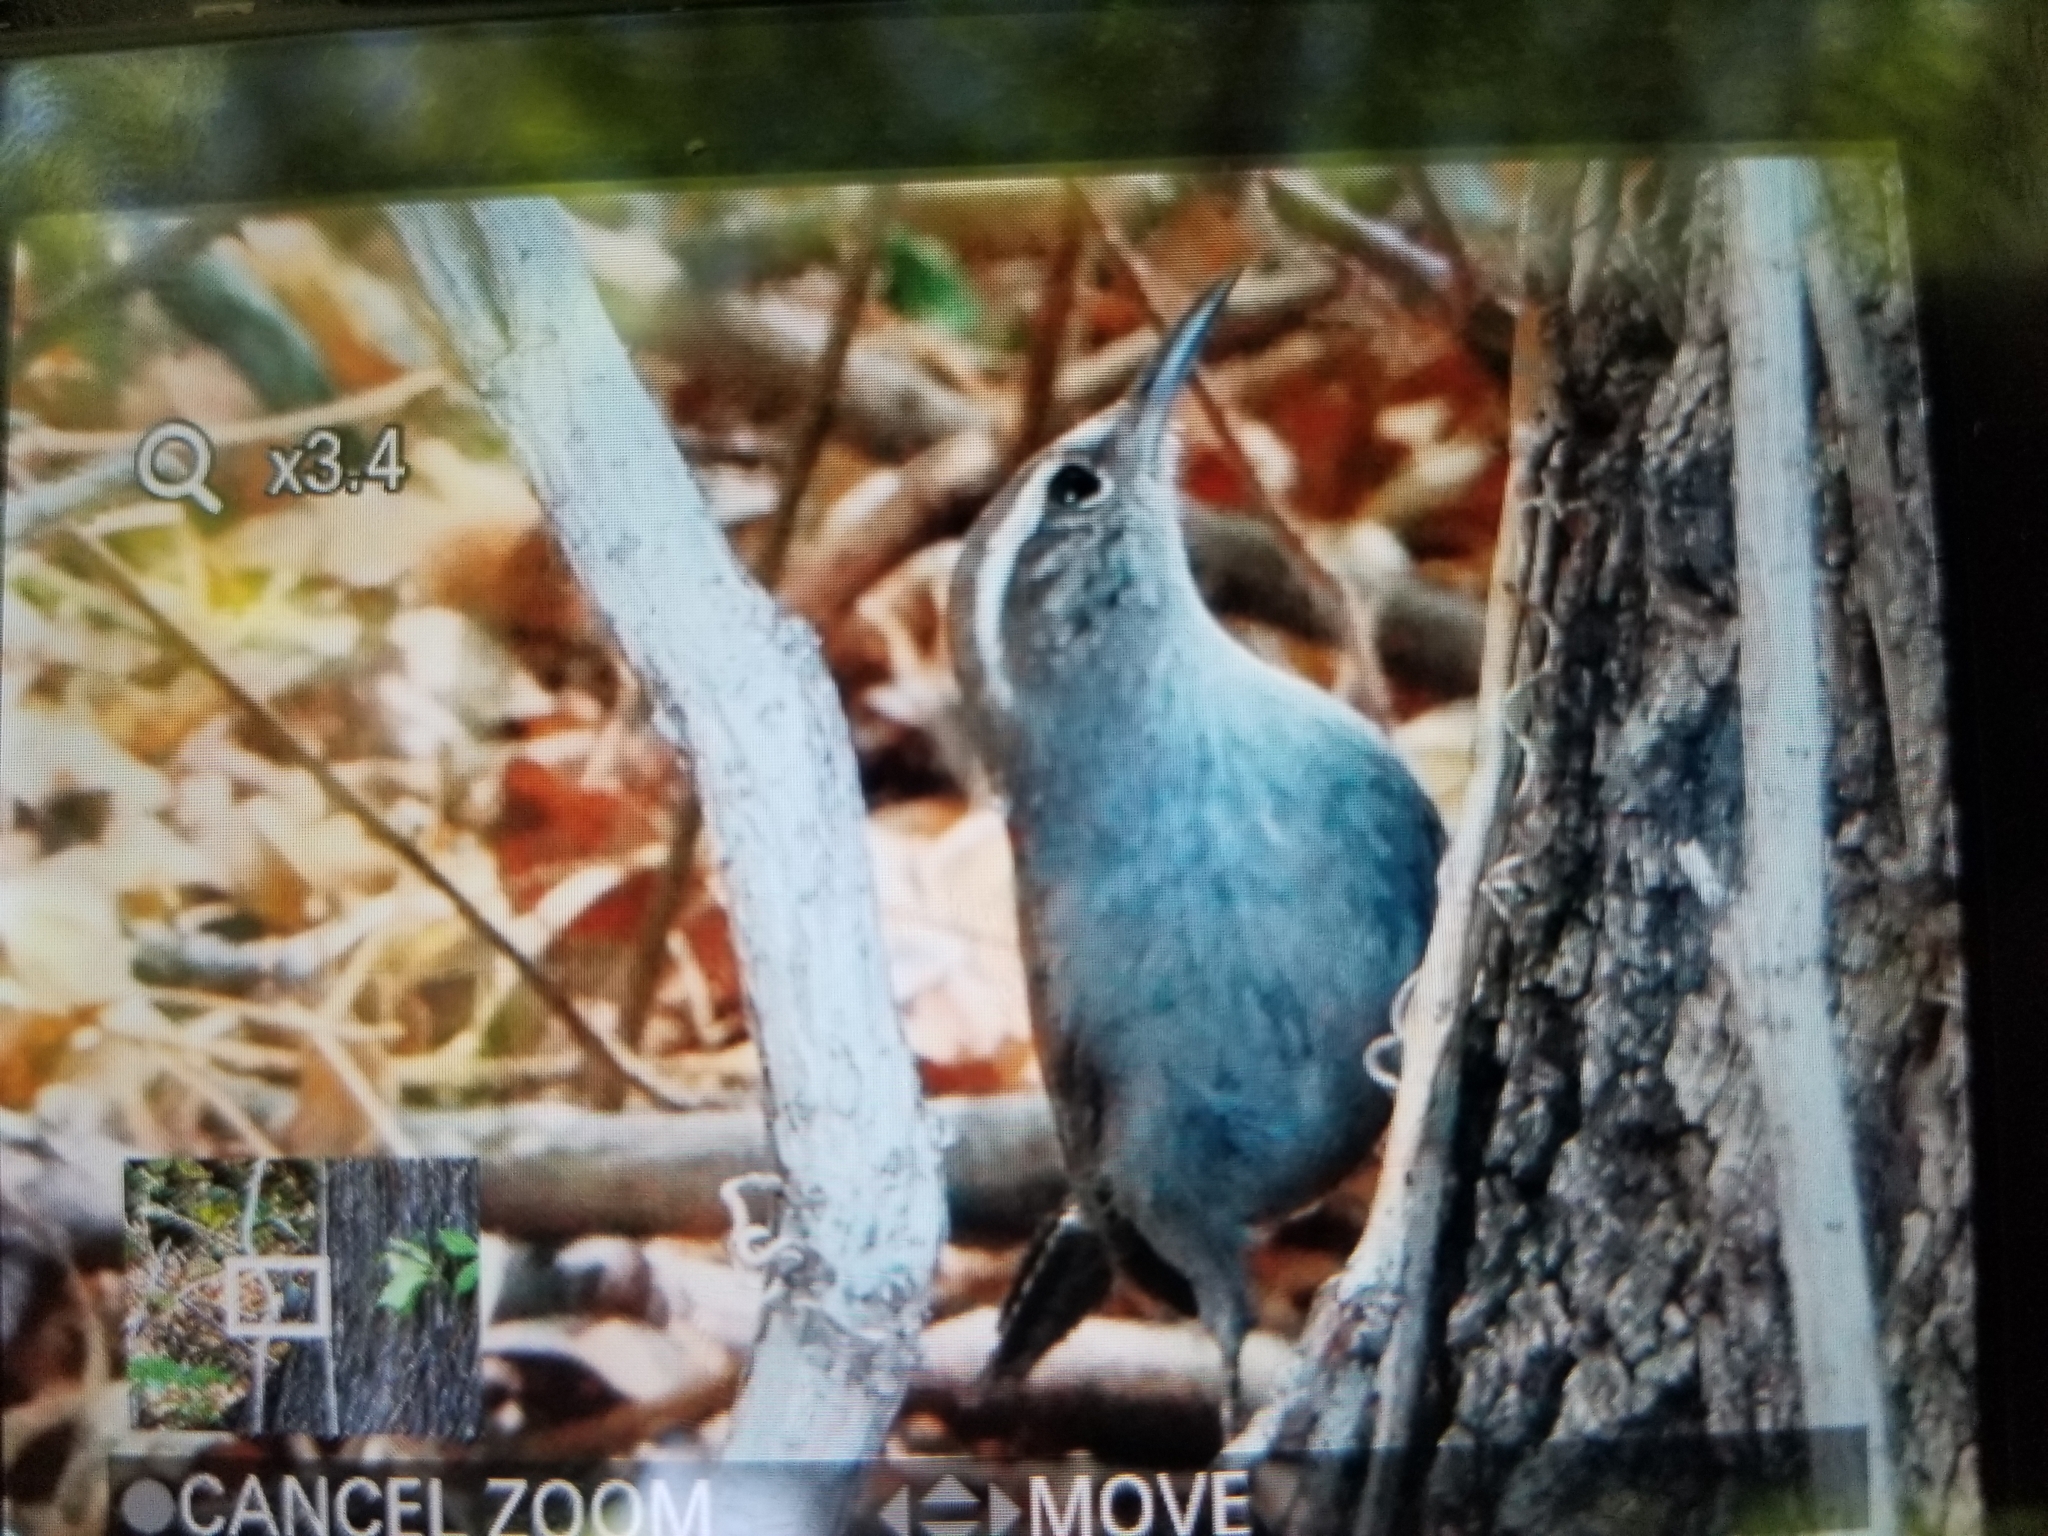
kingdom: Animalia
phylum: Chordata
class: Aves
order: Passeriformes
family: Troglodytidae
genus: Thryomanes
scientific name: Thryomanes bewickii
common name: Bewick's wren
